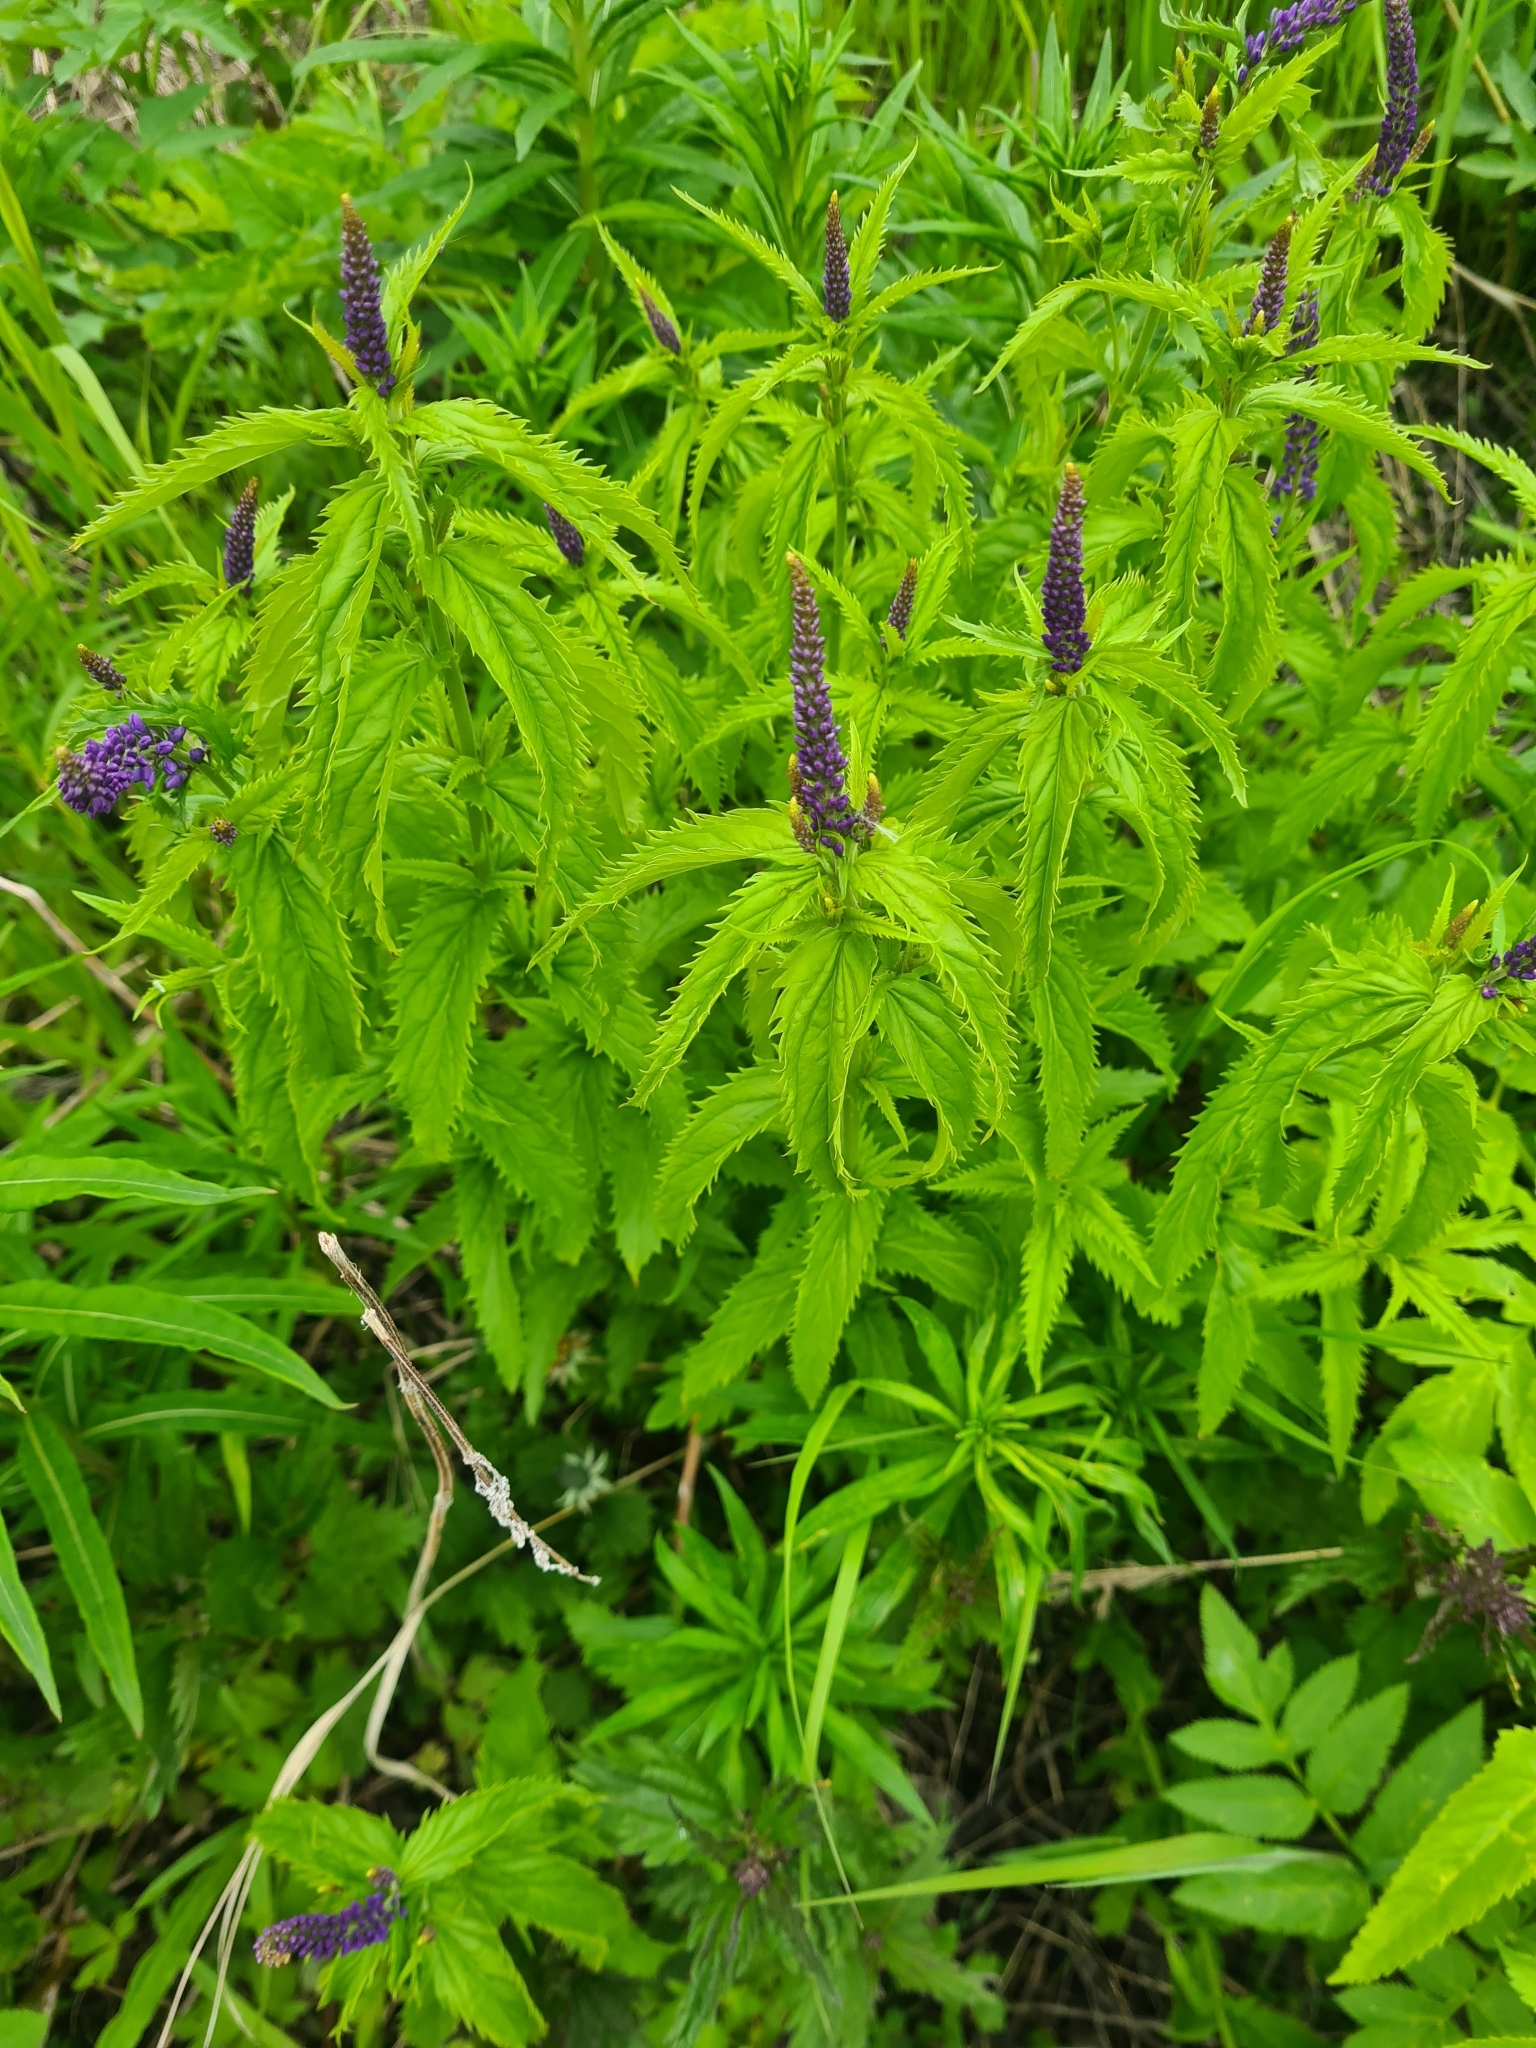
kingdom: Plantae
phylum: Tracheophyta
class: Magnoliopsida
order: Lamiales
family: Plantaginaceae
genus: Veronica
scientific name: Veronica longifolia
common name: Garden speedwell
